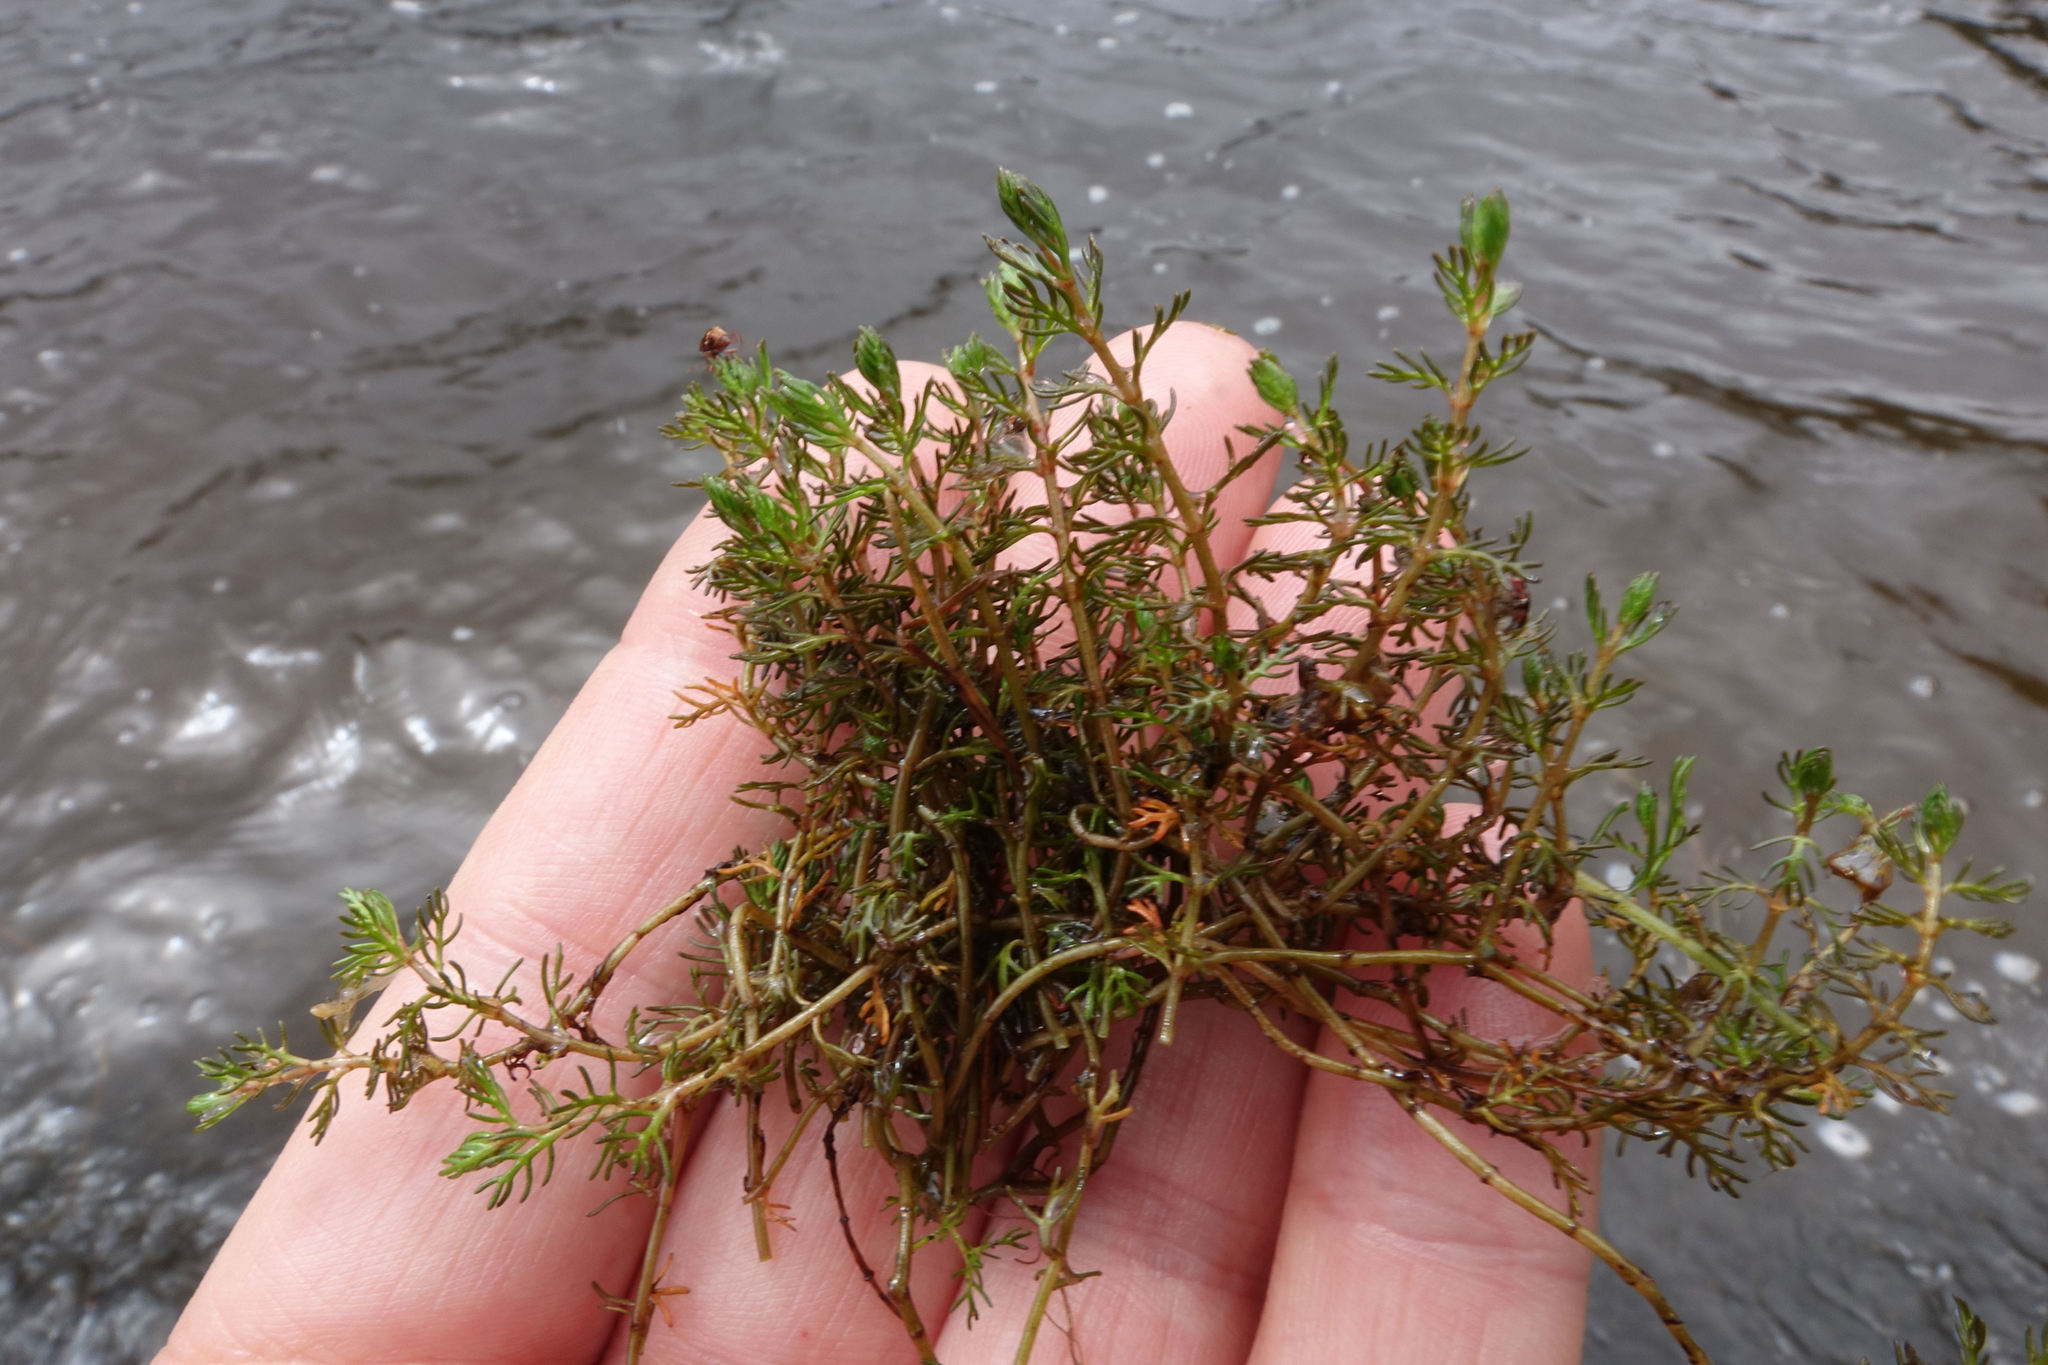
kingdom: Plantae
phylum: Tracheophyta
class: Magnoliopsida
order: Saxifragales
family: Haloragaceae
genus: Myriophyllum
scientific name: Myriophyllum propinquum
